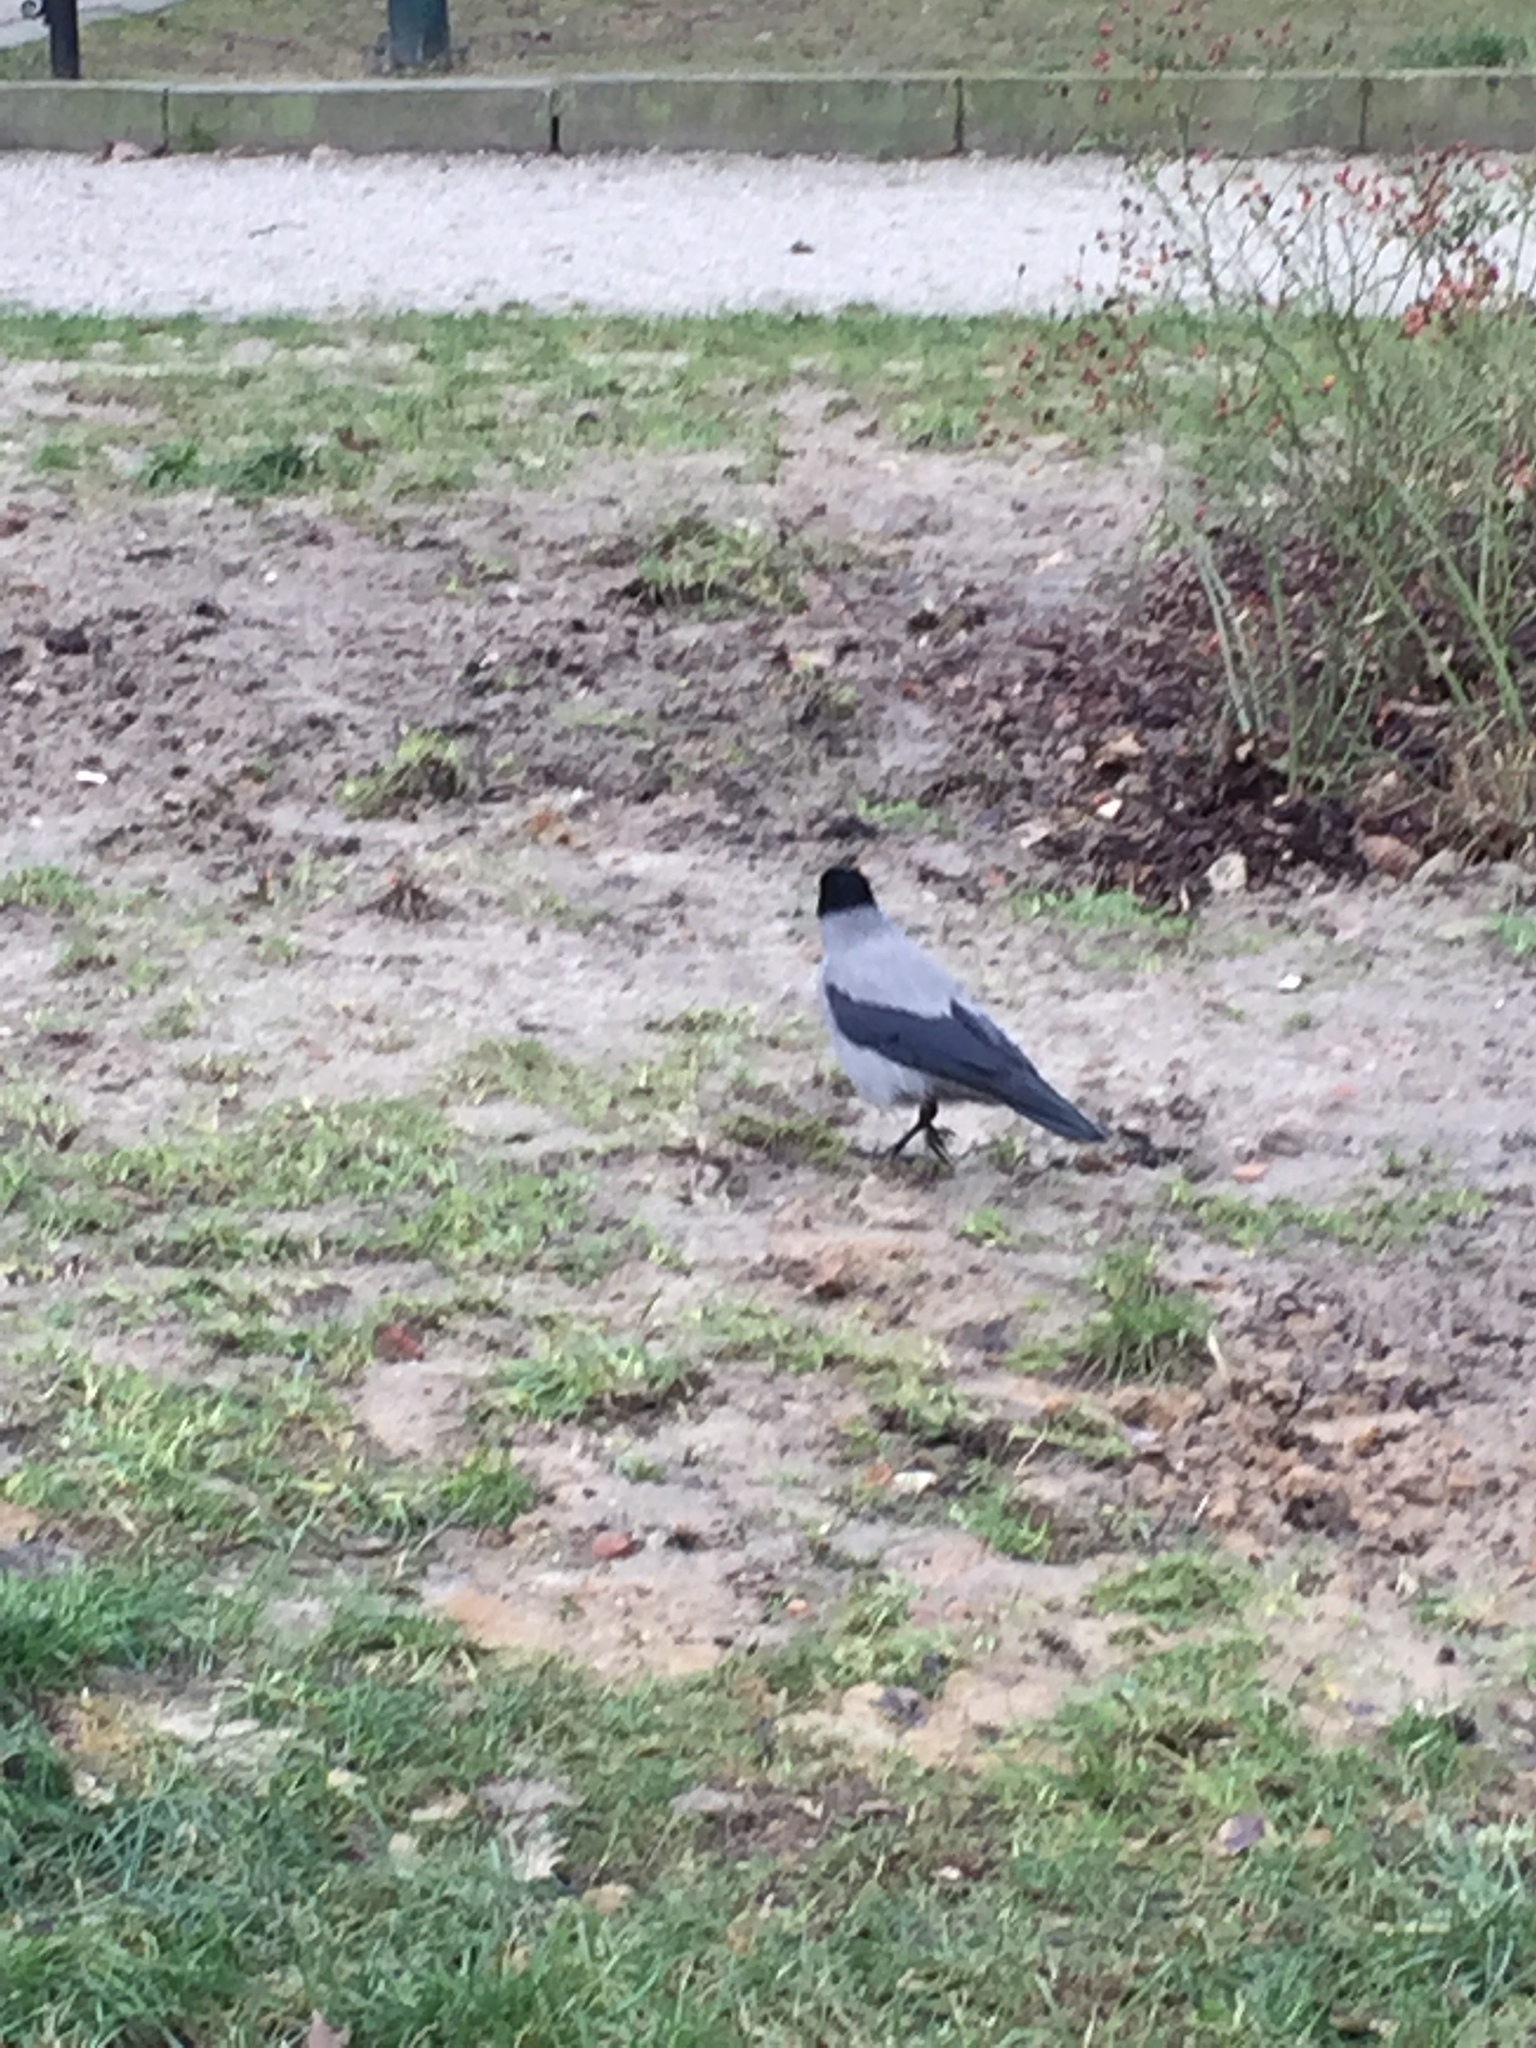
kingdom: Animalia
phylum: Chordata
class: Aves
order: Passeriformes
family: Corvidae
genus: Corvus
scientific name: Corvus cornix
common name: Hooded crow
